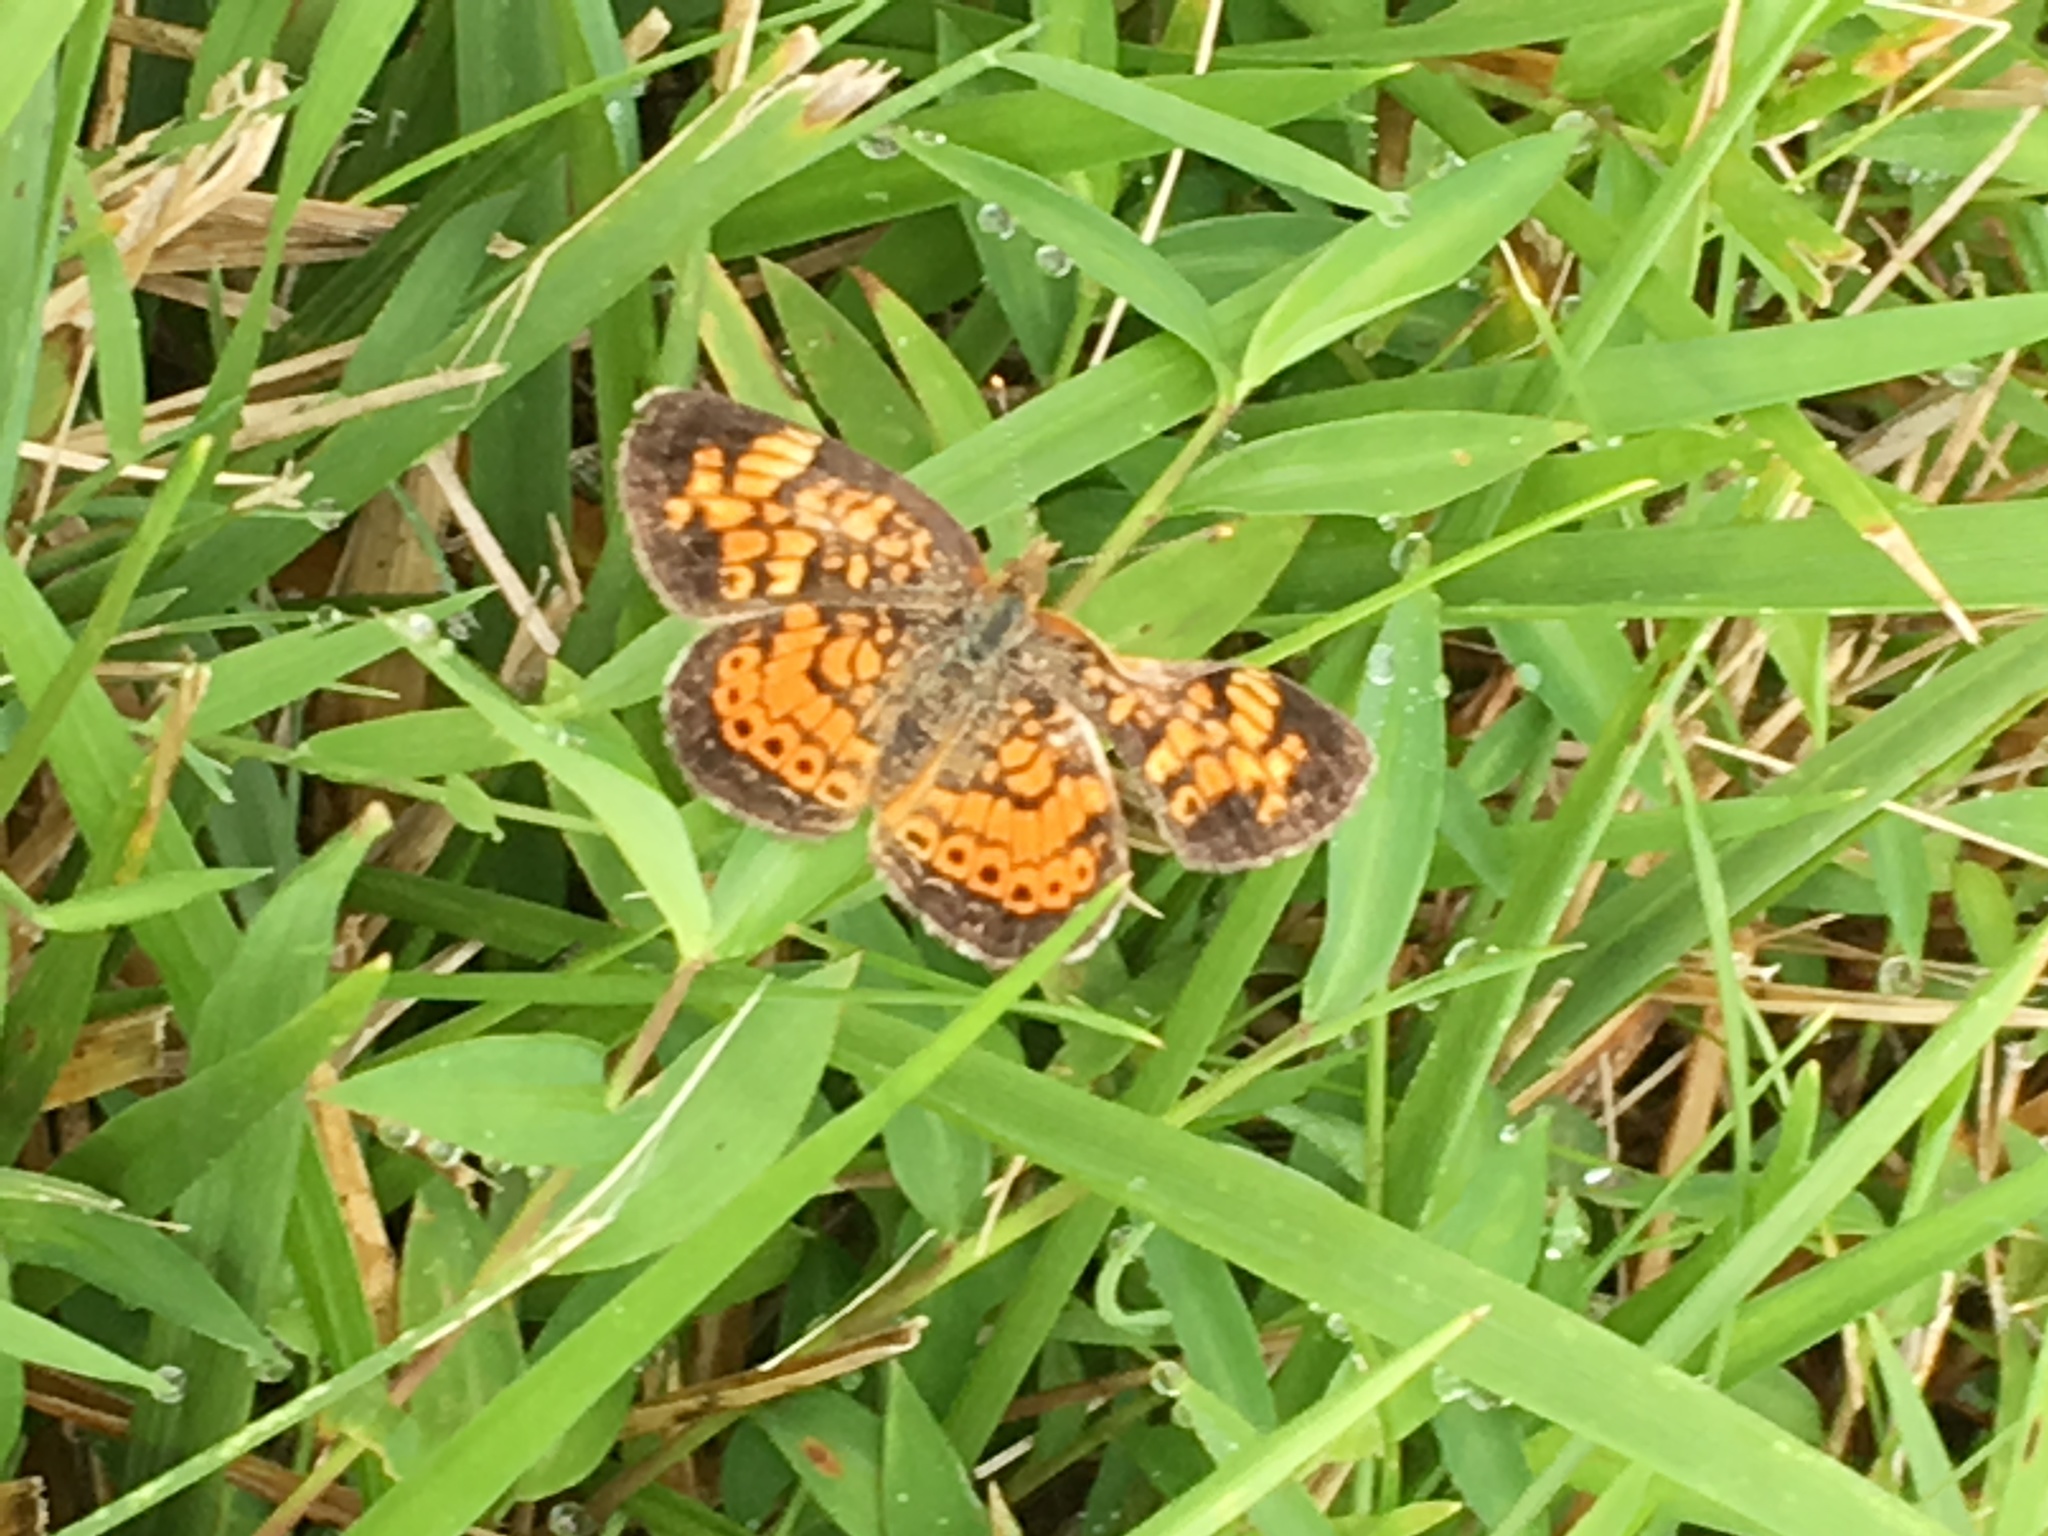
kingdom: Animalia
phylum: Arthropoda
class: Insecta
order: Lepidoptera
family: Nymphalidae
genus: Phyciodes
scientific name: Phyciodes tharos
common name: Pearl crescent
